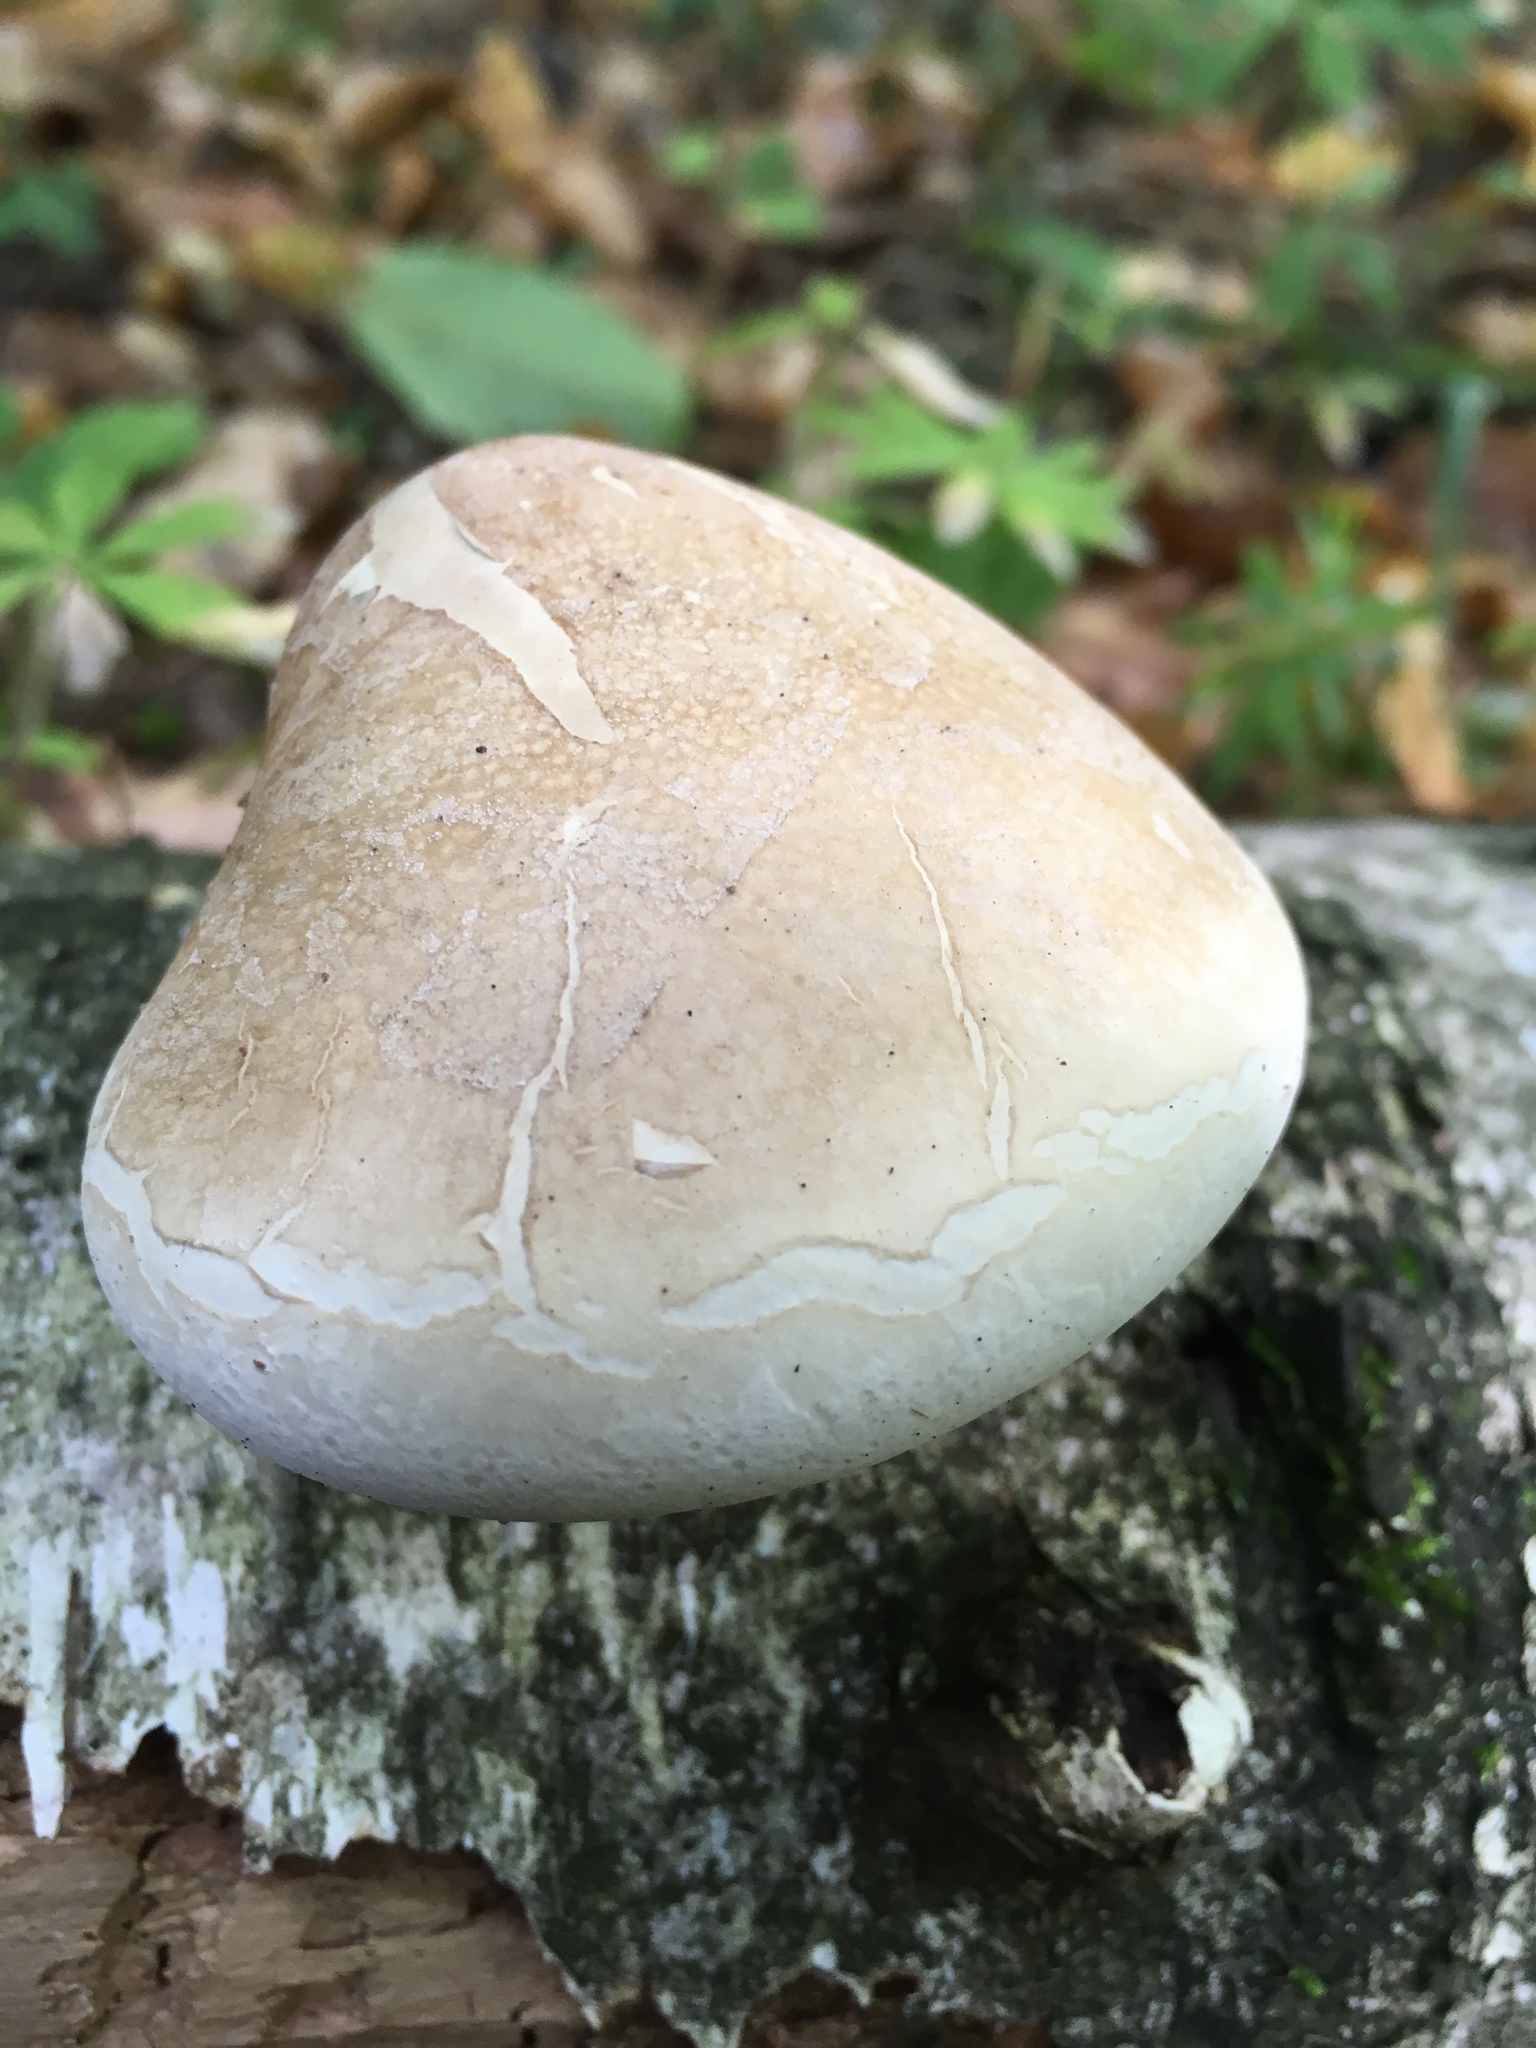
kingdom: Fungi
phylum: Basidiomycota
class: Agaricomycetes
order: Polyporales
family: Fomitopsidaceae
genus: Fomitopsis
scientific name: Fomitopsis betulina
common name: Birch polypore
